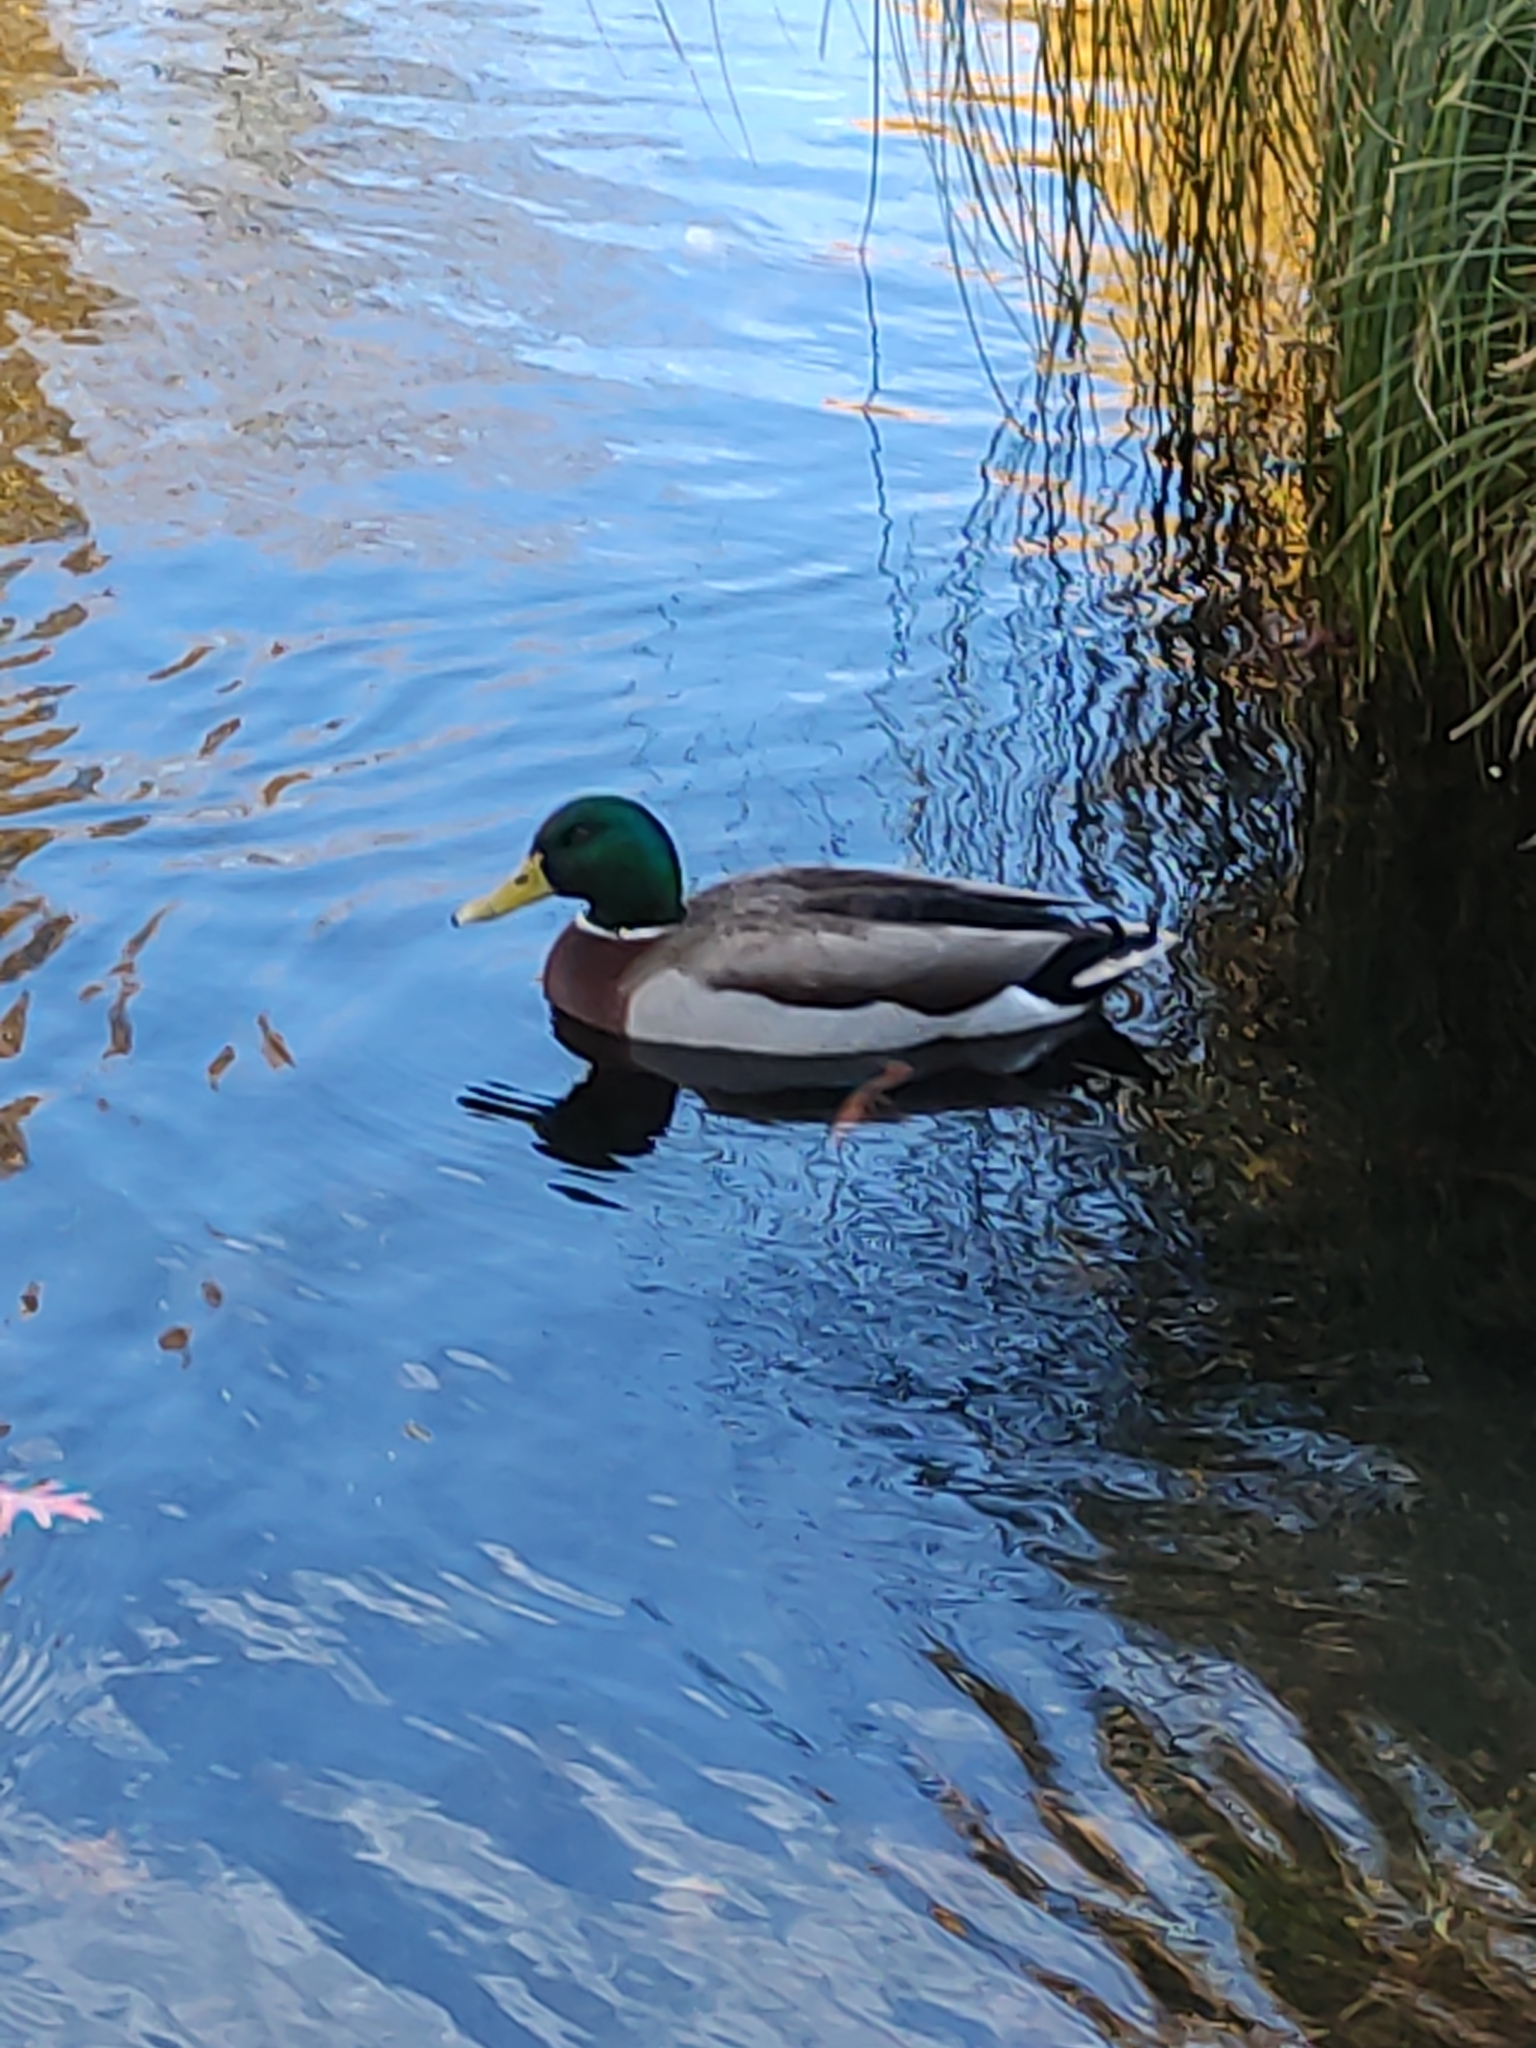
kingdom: Animalia
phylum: Chordata
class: Aves
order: Anseriformes
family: Anatidae
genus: Anas
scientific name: Anas platyrhynchos
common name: Mallard
